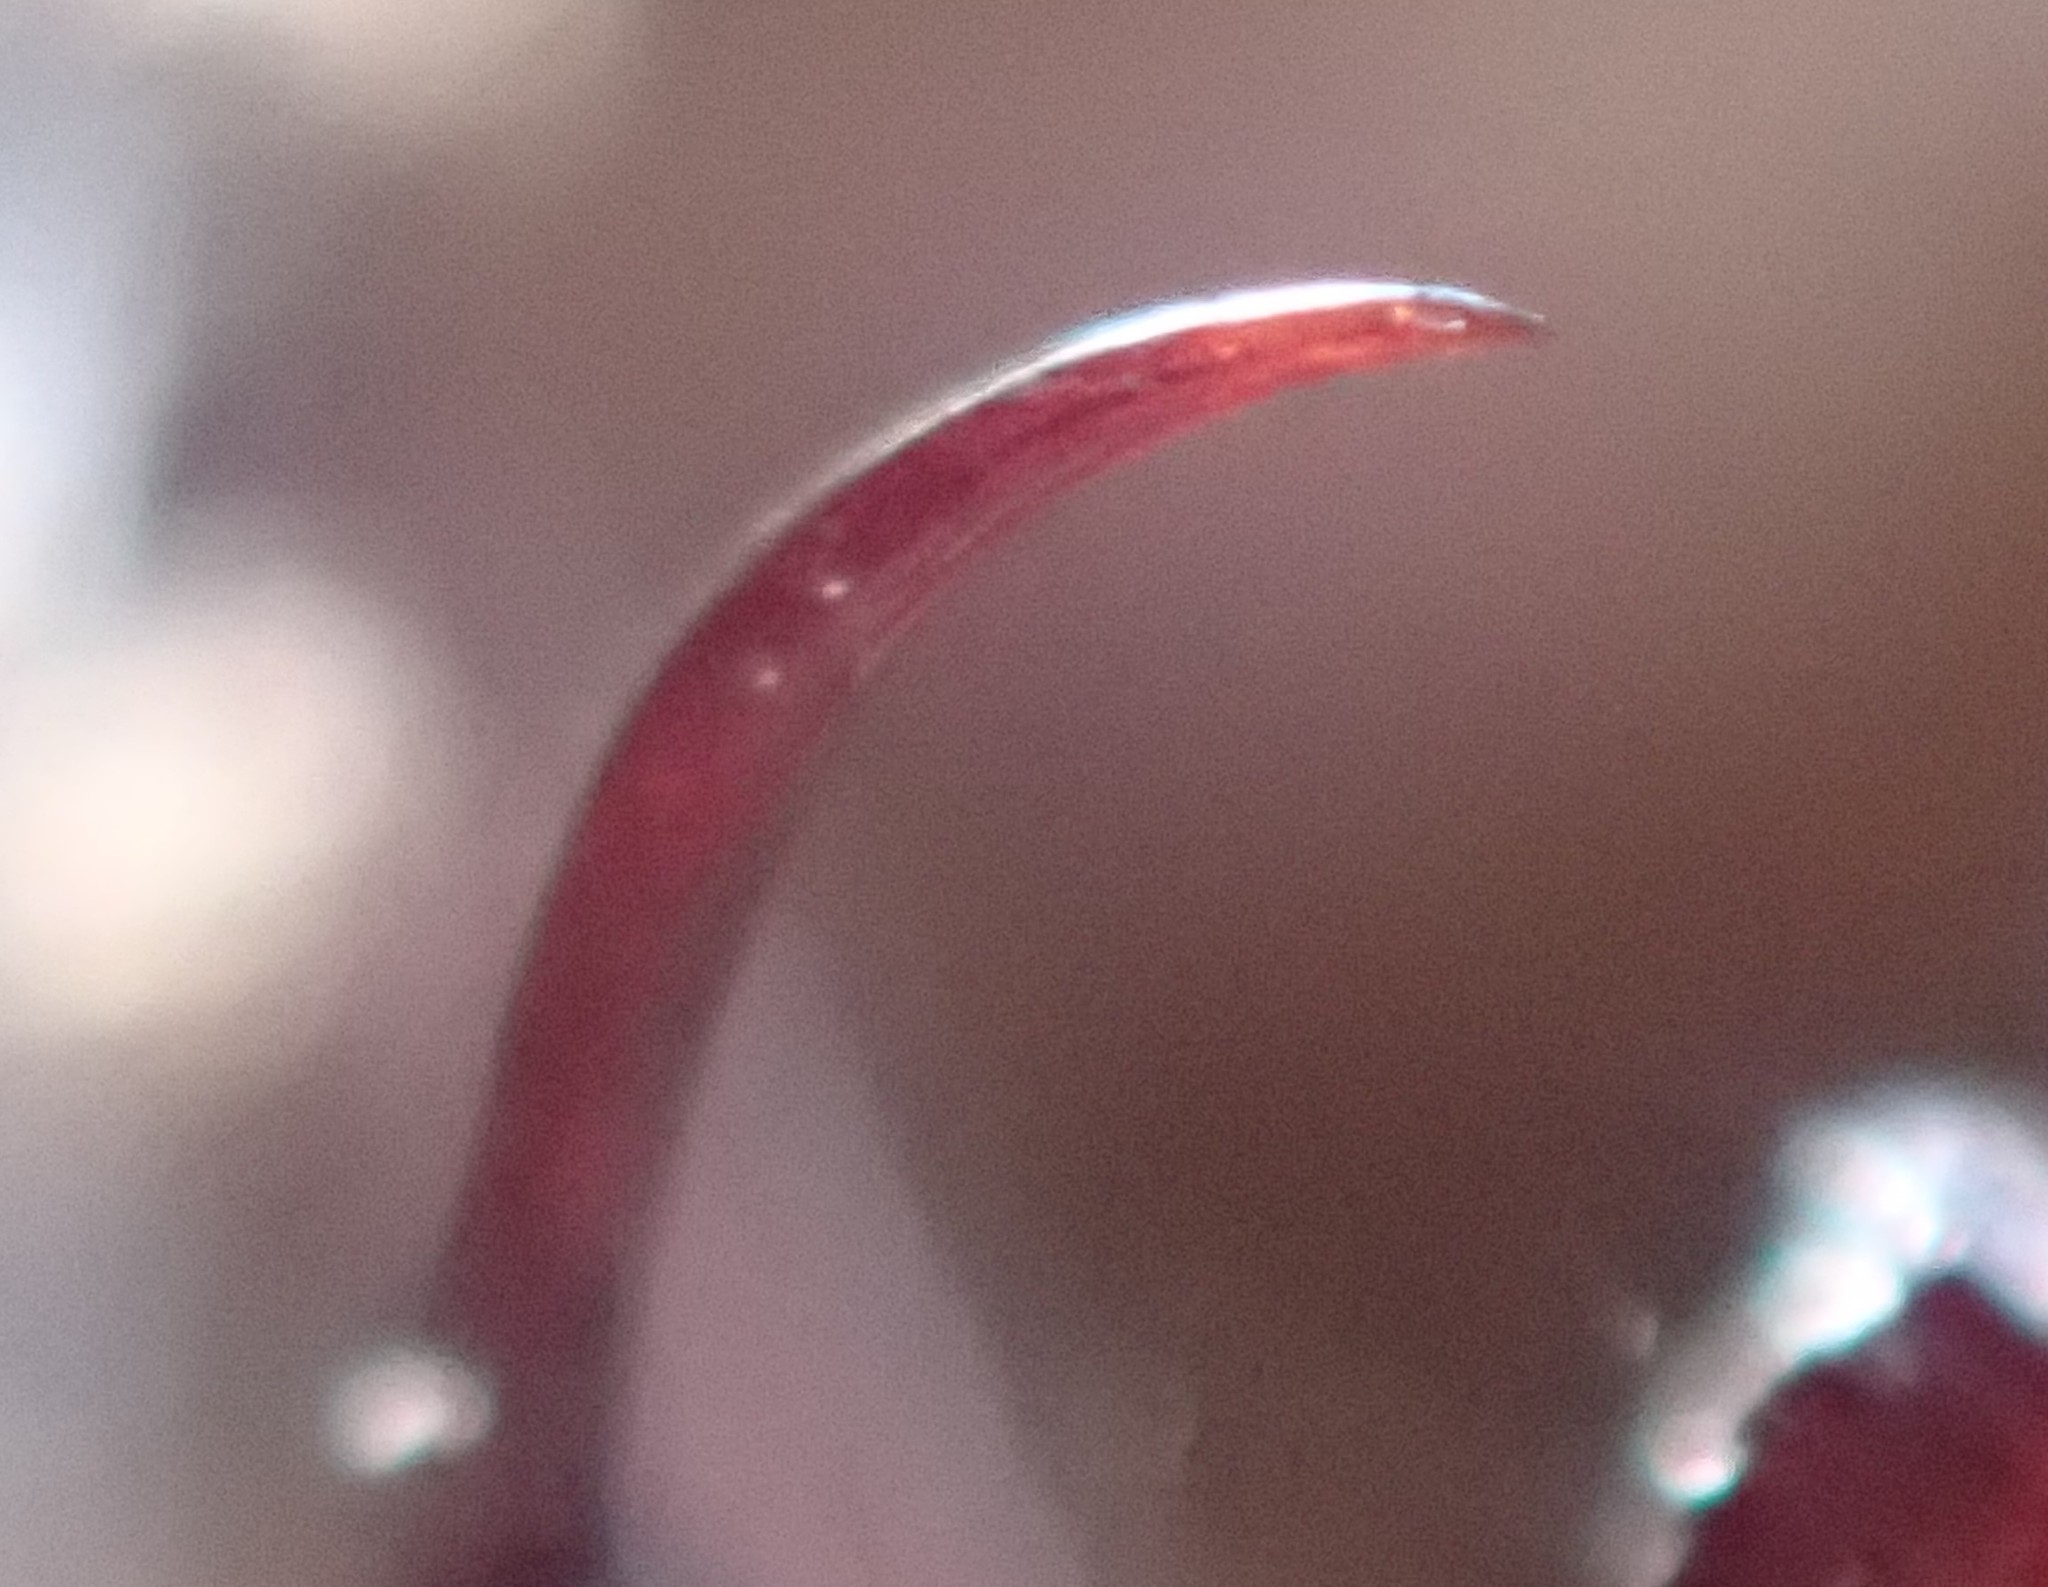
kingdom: Animalia
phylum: Arthropoda
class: Arachnida
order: Araneae
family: Dysderidae
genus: Dysdera
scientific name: Dysdera crocata
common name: Woodlouse spider
